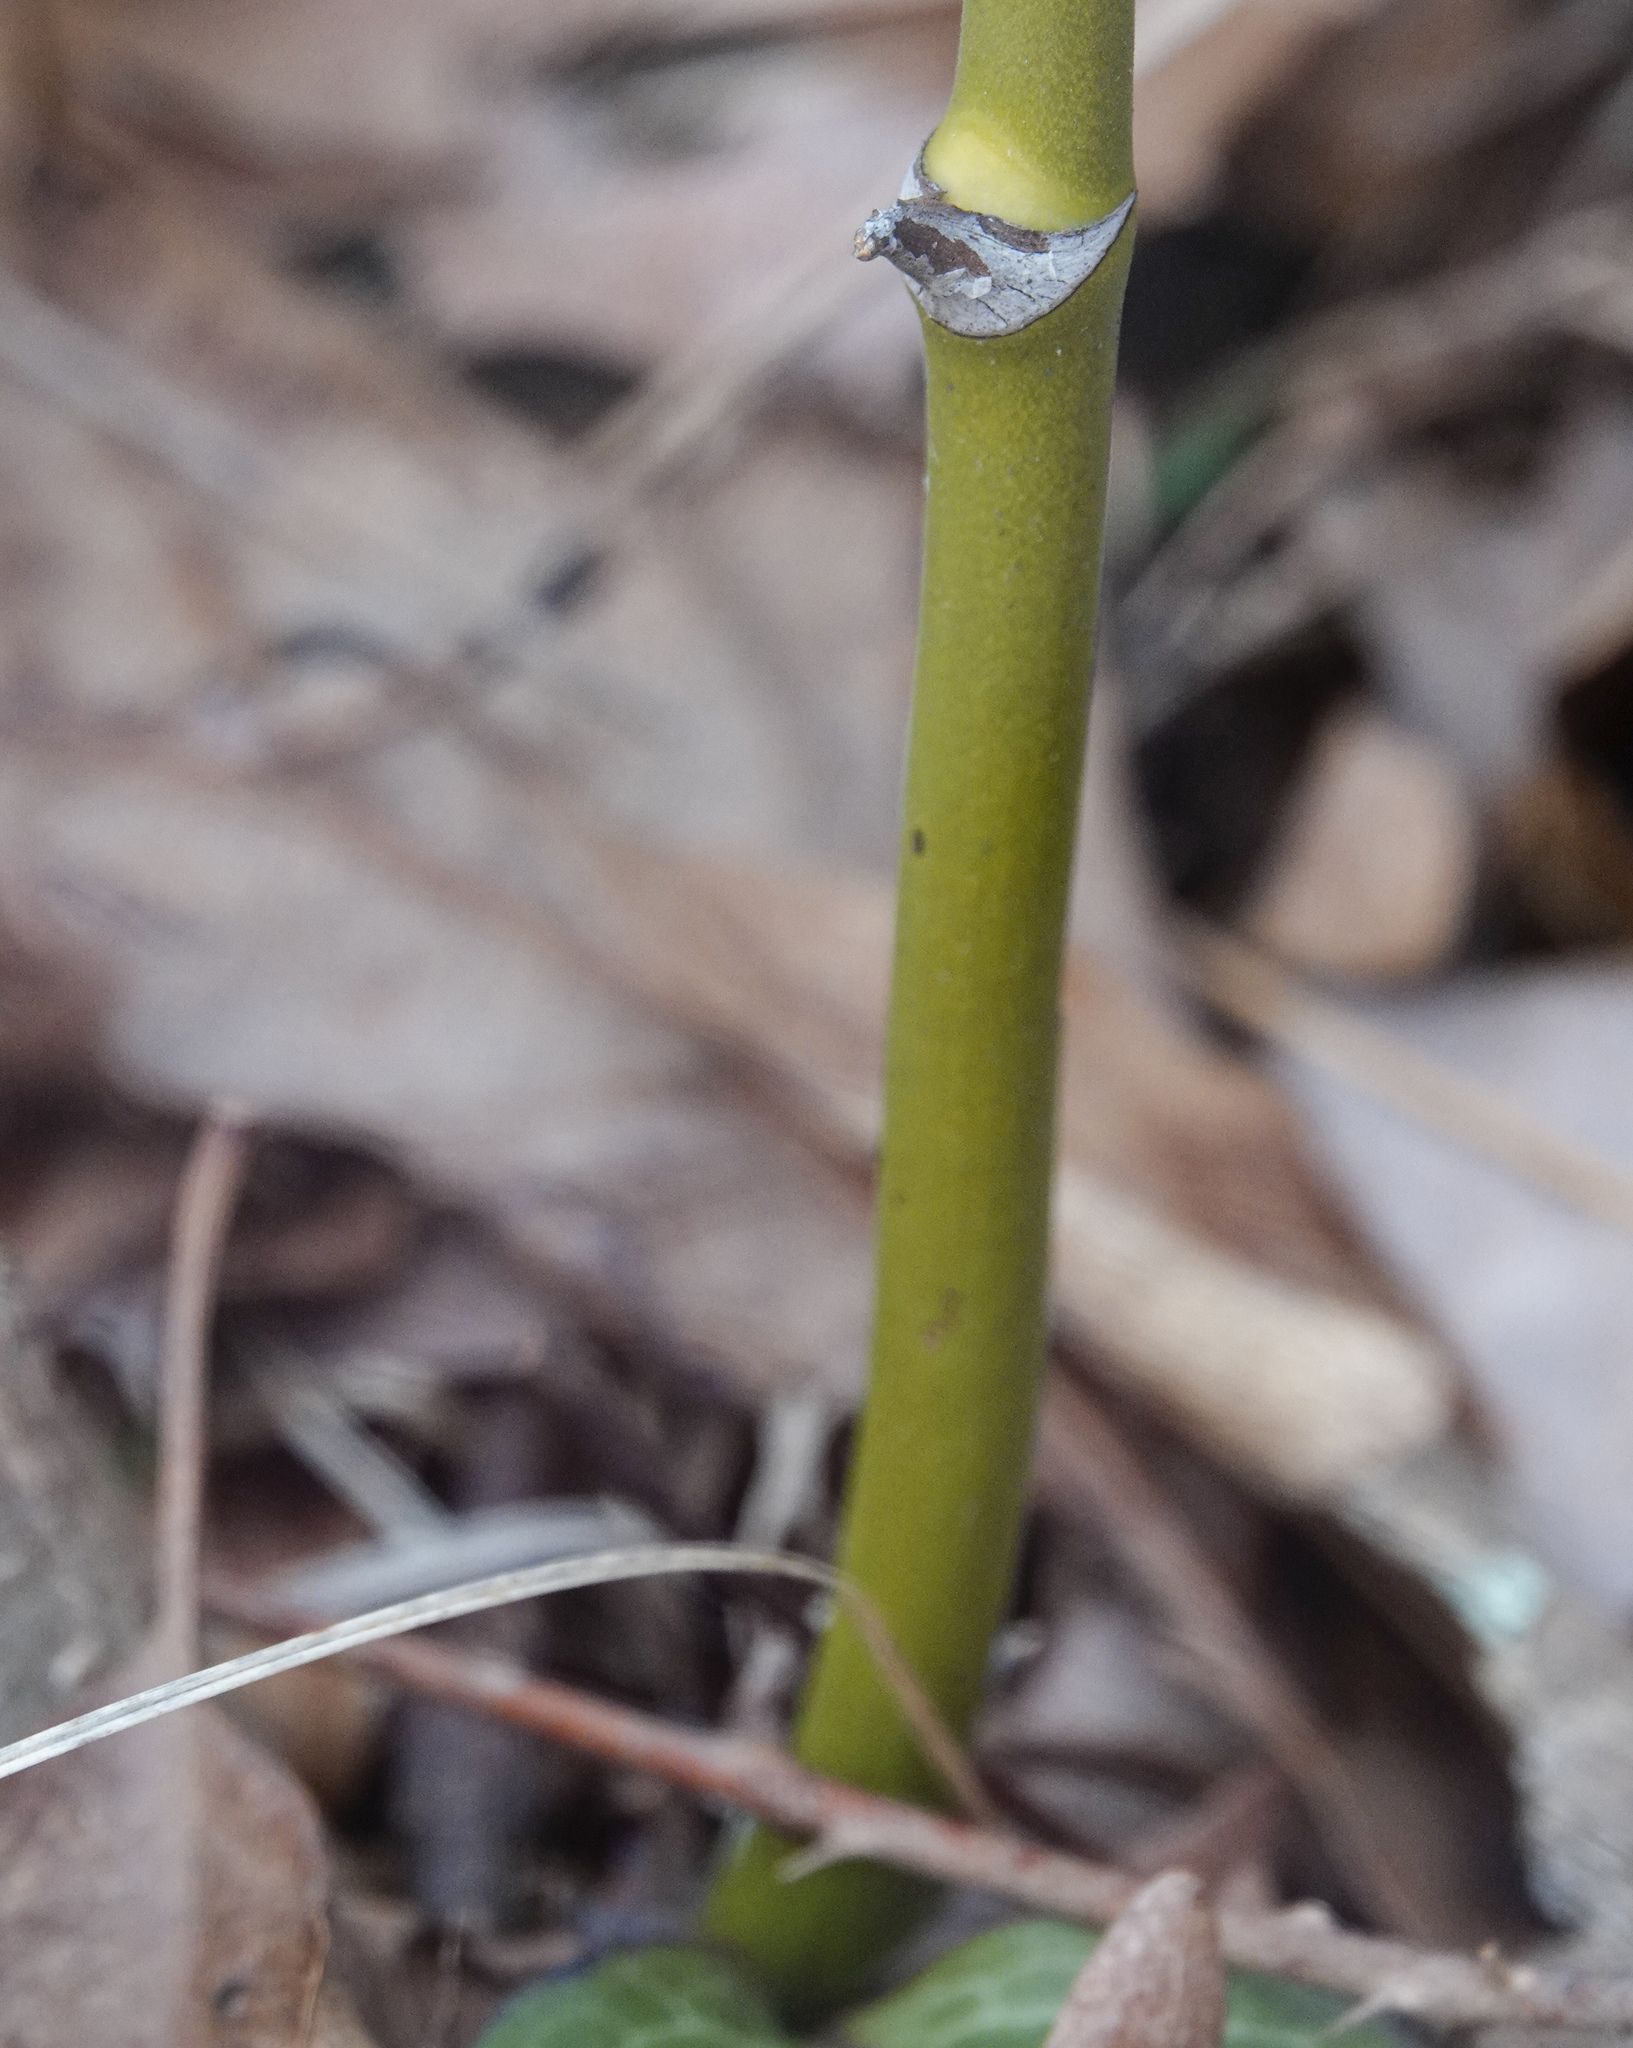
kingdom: Plantae
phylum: Tracheophyta
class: Liliopsida
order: Liliales
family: Smilacaceae
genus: Smilax
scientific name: Smilax rotundifolia
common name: Bullbriar
